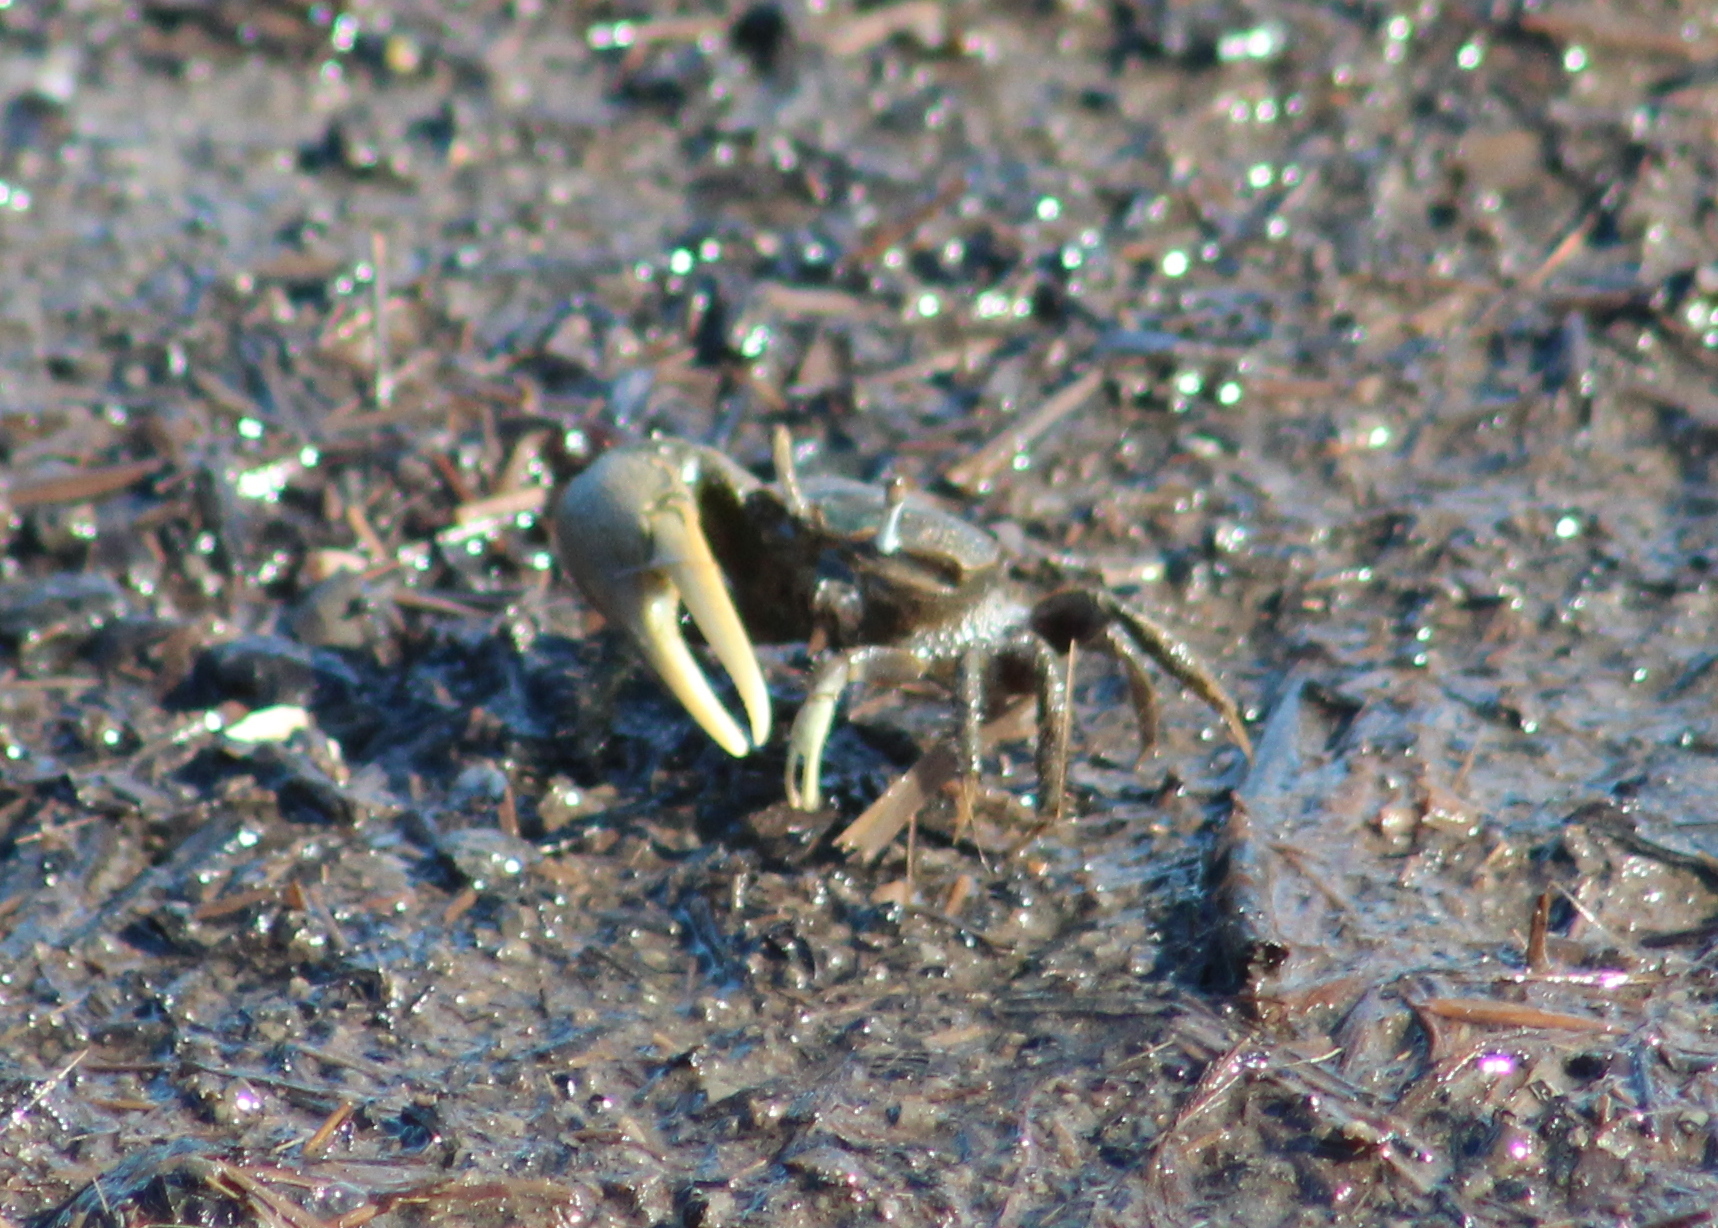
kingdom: Animalia
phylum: Arthropoda
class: Malacostraca
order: Decapoda
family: Ocypodidae
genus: Minuca
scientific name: Minuca pugnax
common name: Mud fiddler crab
